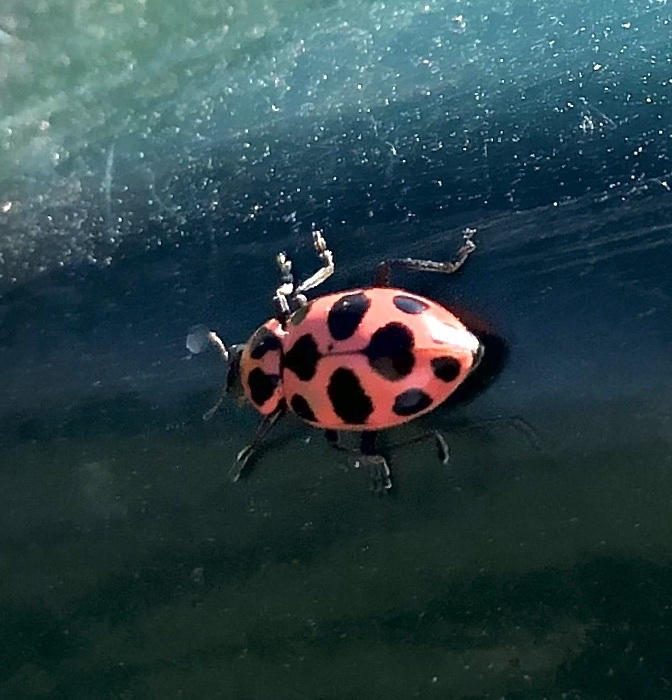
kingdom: Animalia
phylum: Arthropoda
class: Insecta
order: Coleoptera
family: Coccinellidae
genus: Coleomegilla
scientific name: Coleomegilla maculata
